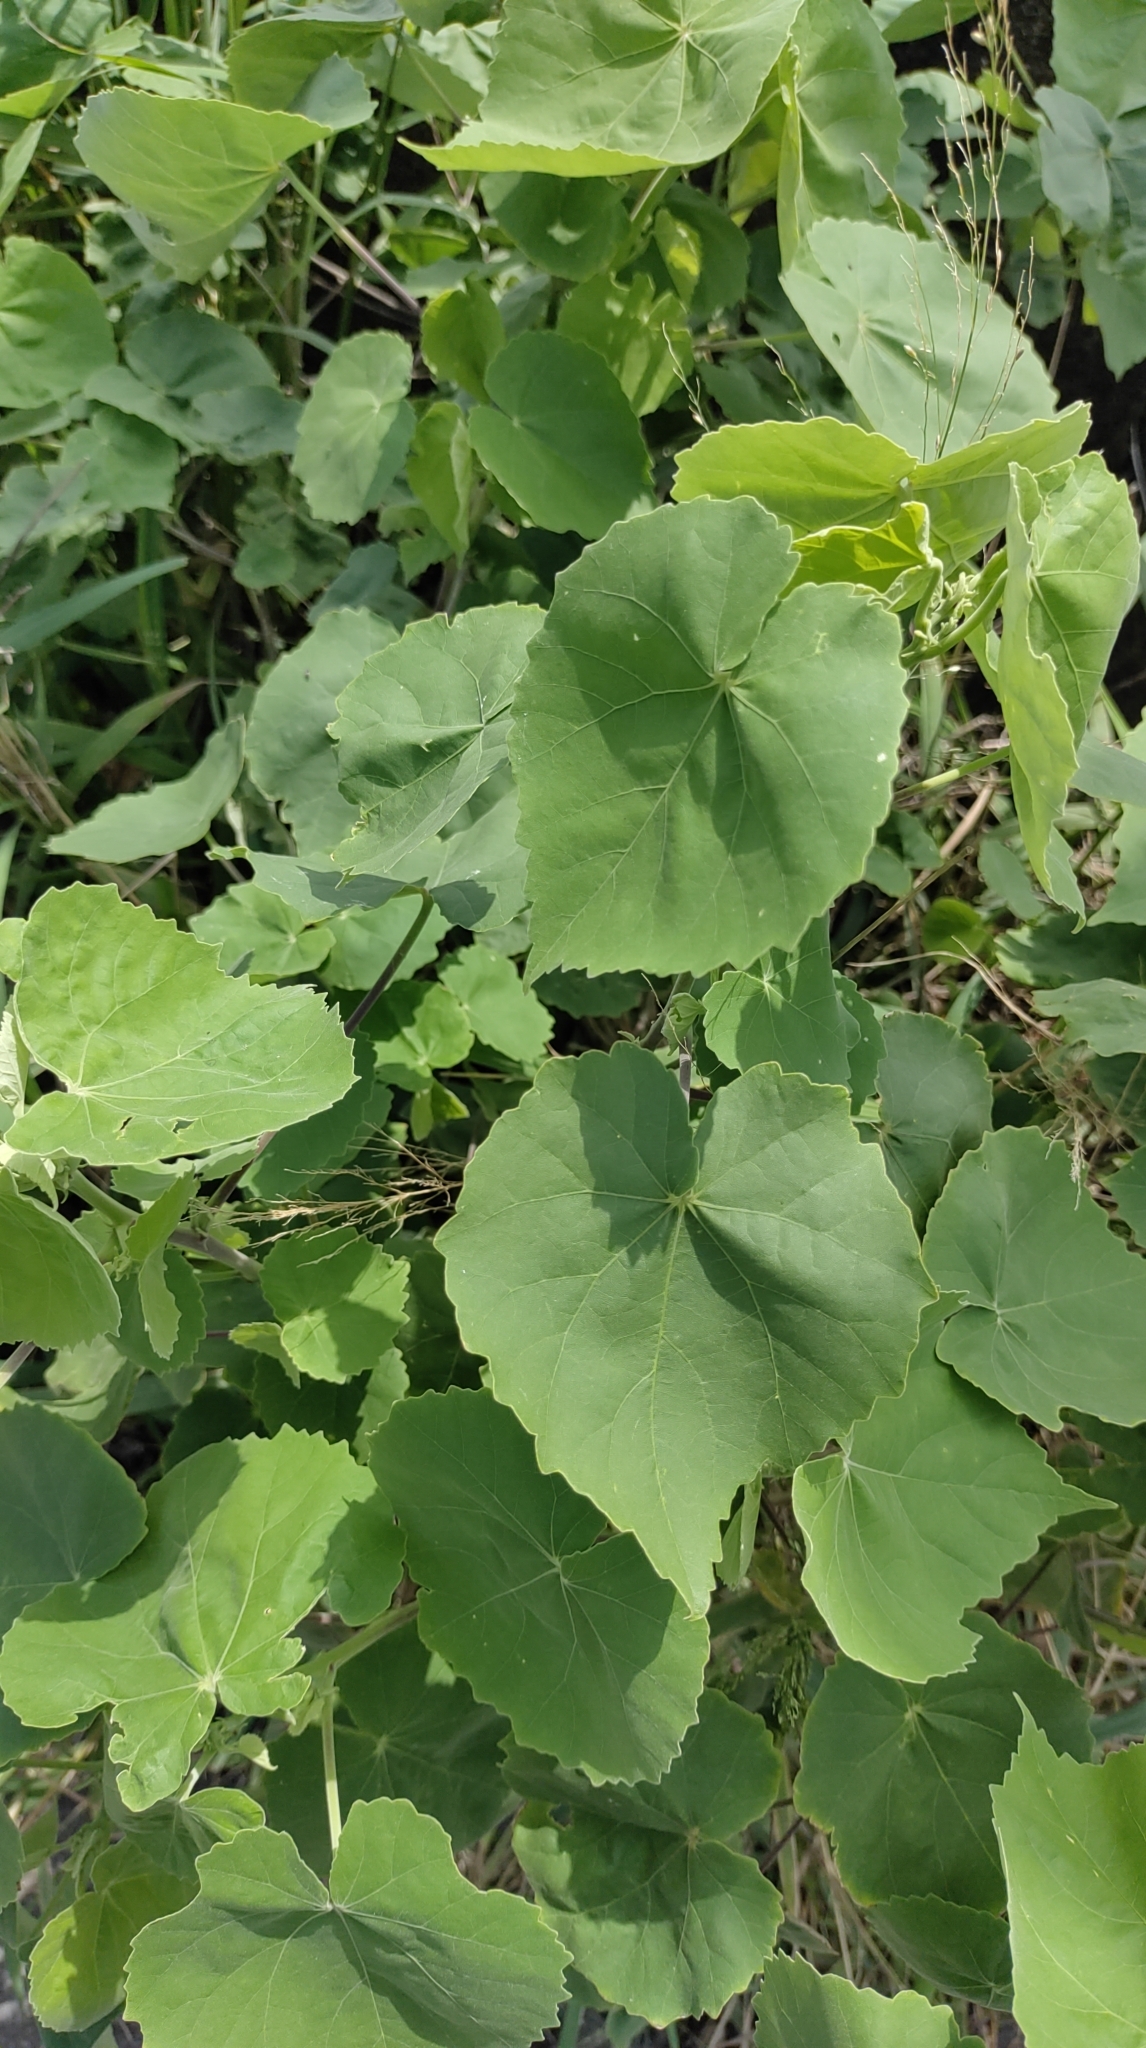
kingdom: Plantae
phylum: Tracheophyta
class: Magnoliopsida
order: Malvales
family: Malvaceae
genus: Abutilon
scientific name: Abutilon indicum
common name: Indian abutilon
